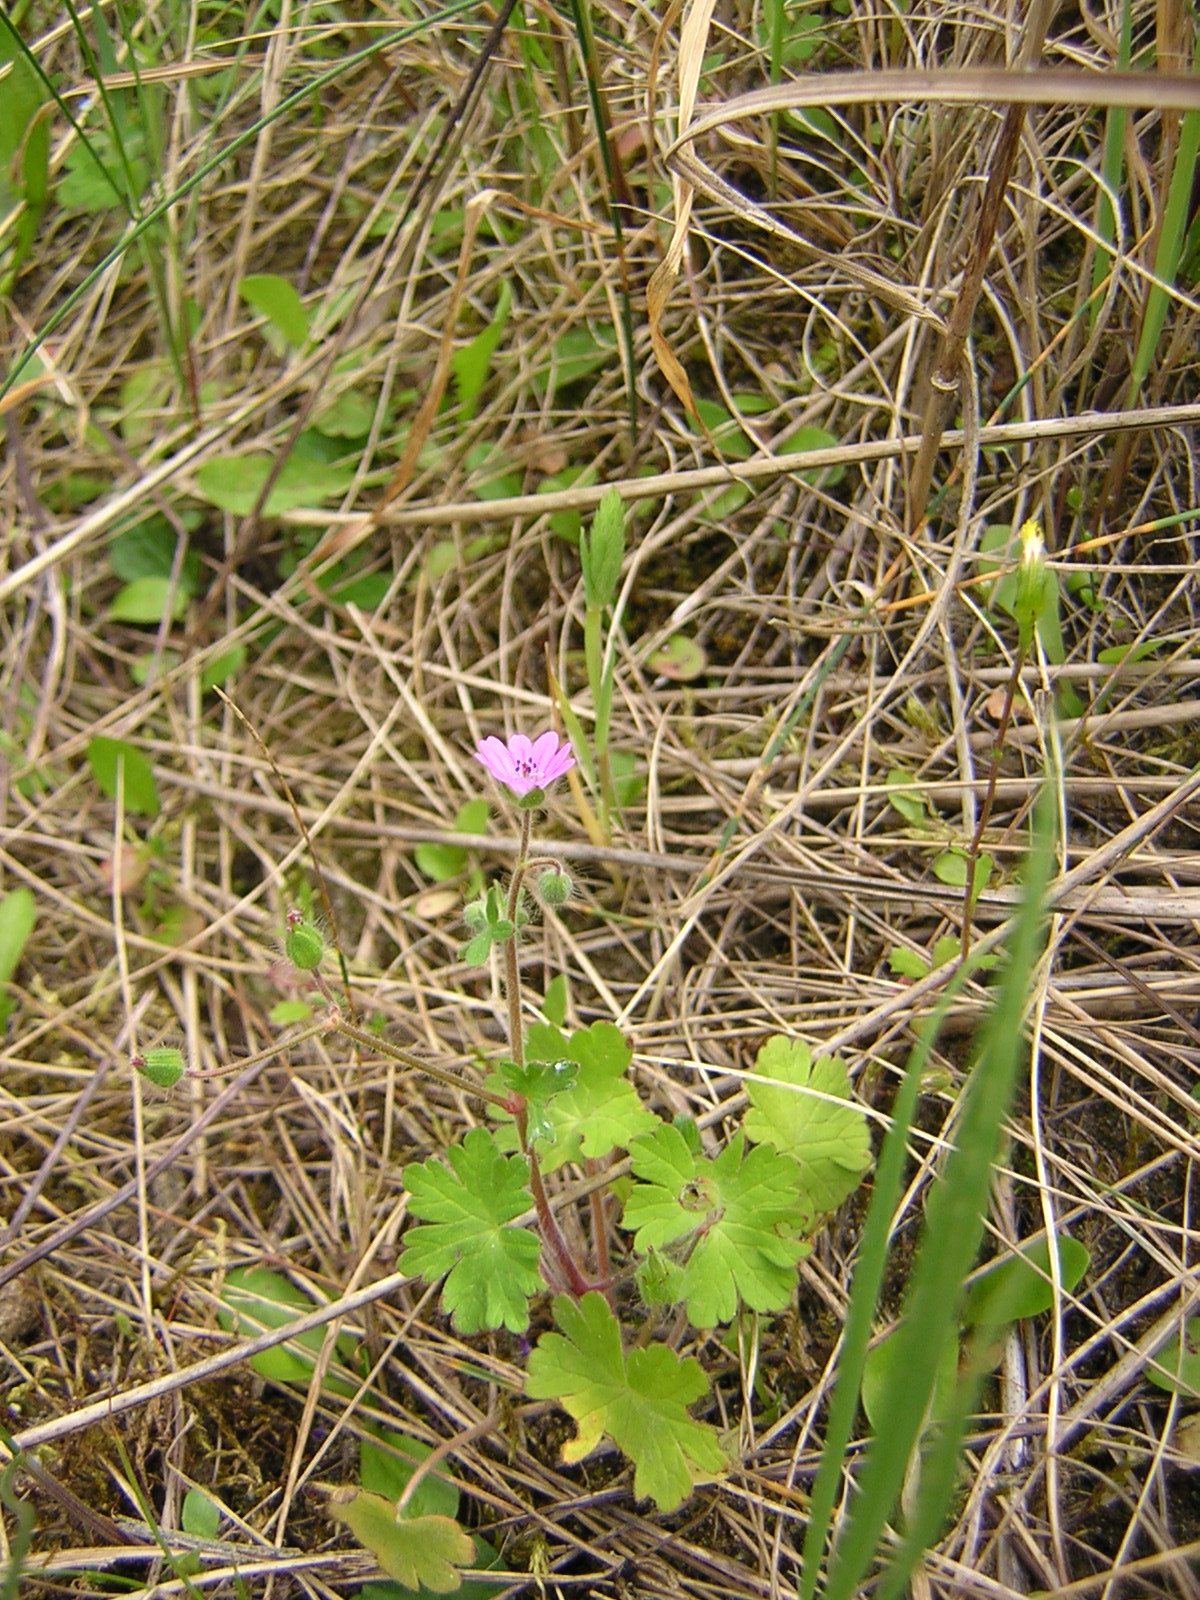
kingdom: Plantae
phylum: Tracheophyta
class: Magnoliopsida
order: Geraniales
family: Geraniaceae
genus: Geranium
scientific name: Geranium molle
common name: Dove's-foot crane's-bill
